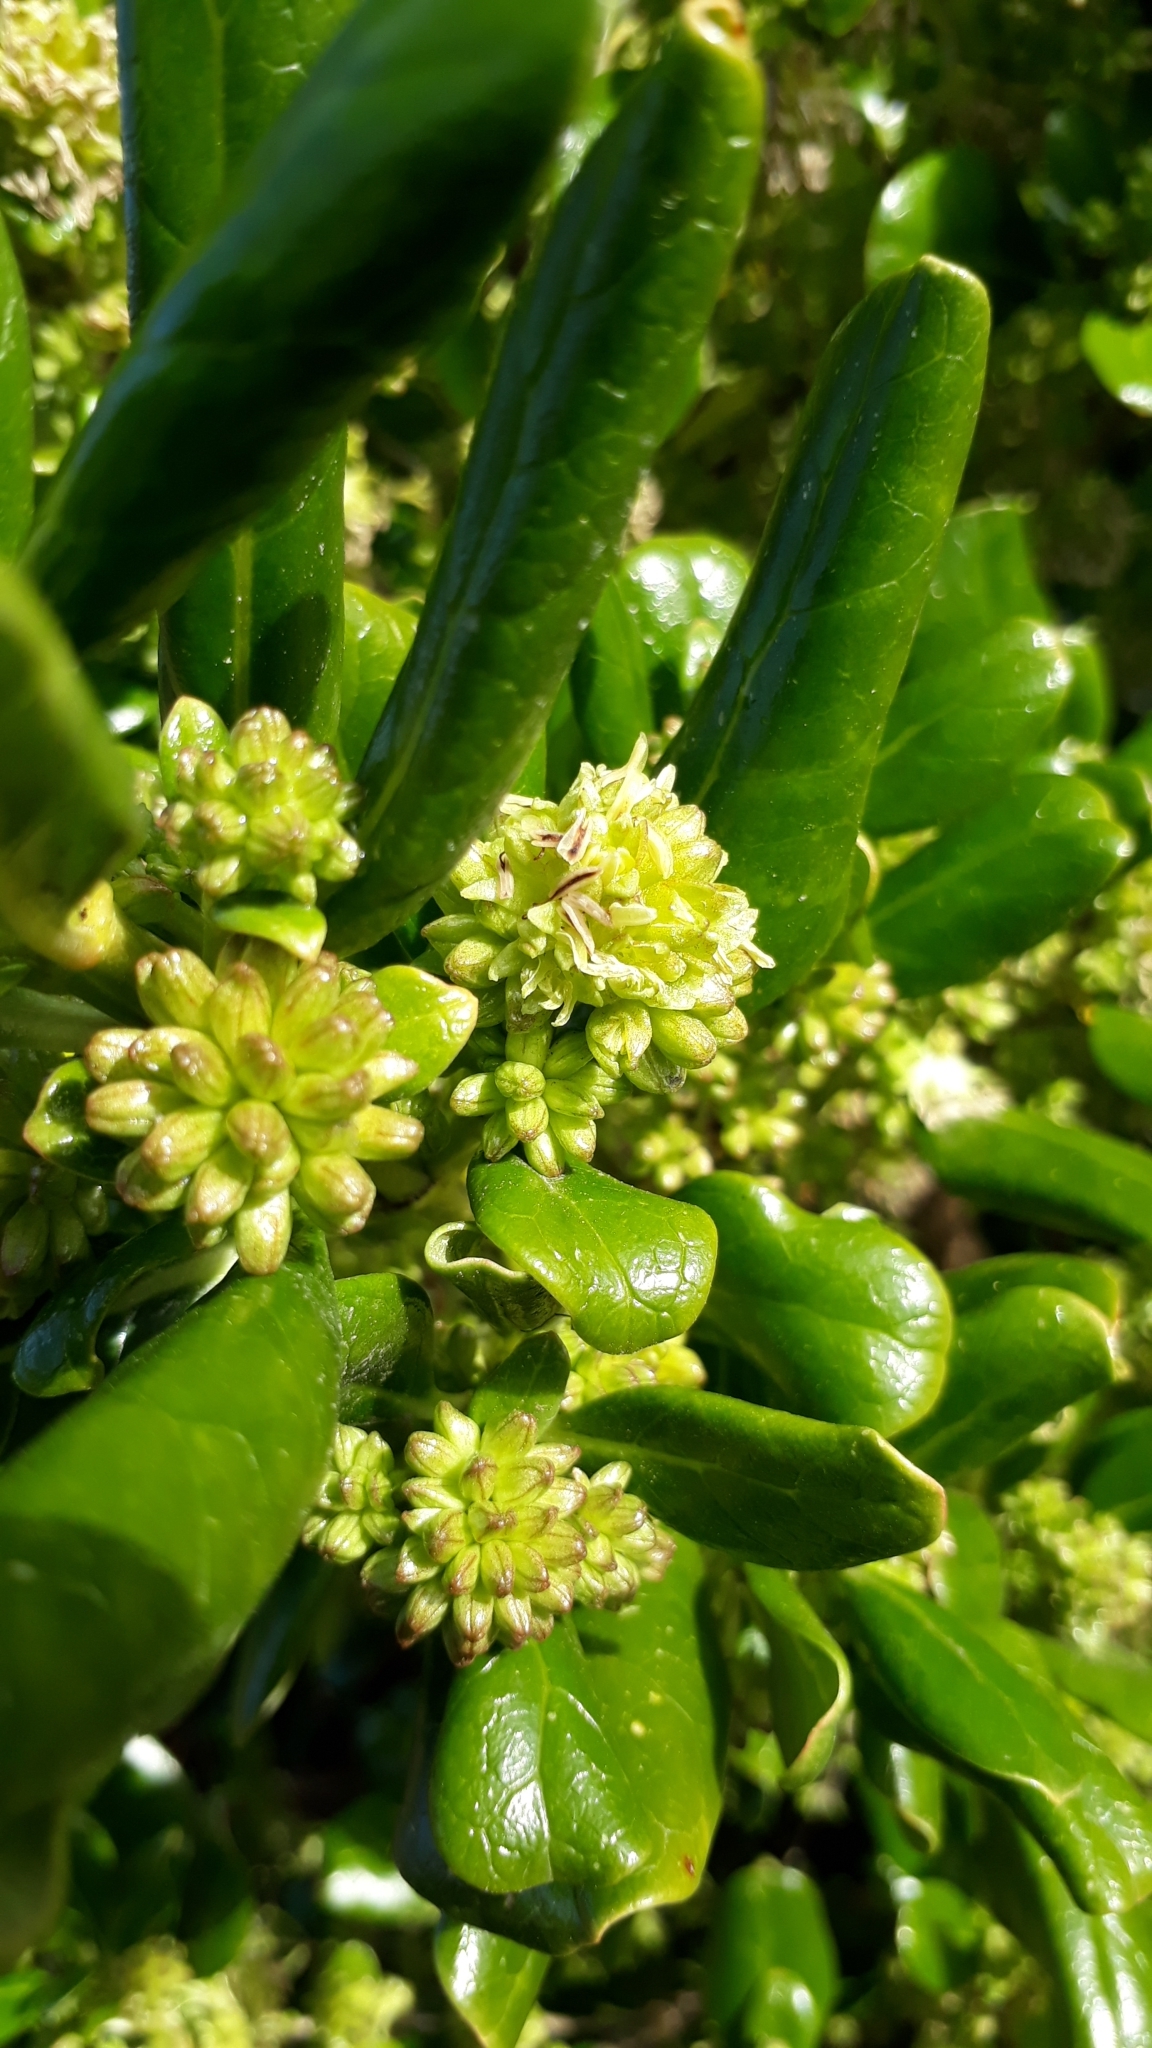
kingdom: Plantae
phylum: Tracheophyta
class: Magnoliopsida
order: Gentianales
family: Rubiaceae
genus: Coprosma
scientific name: Coprosma repens
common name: Tree bedstraw
